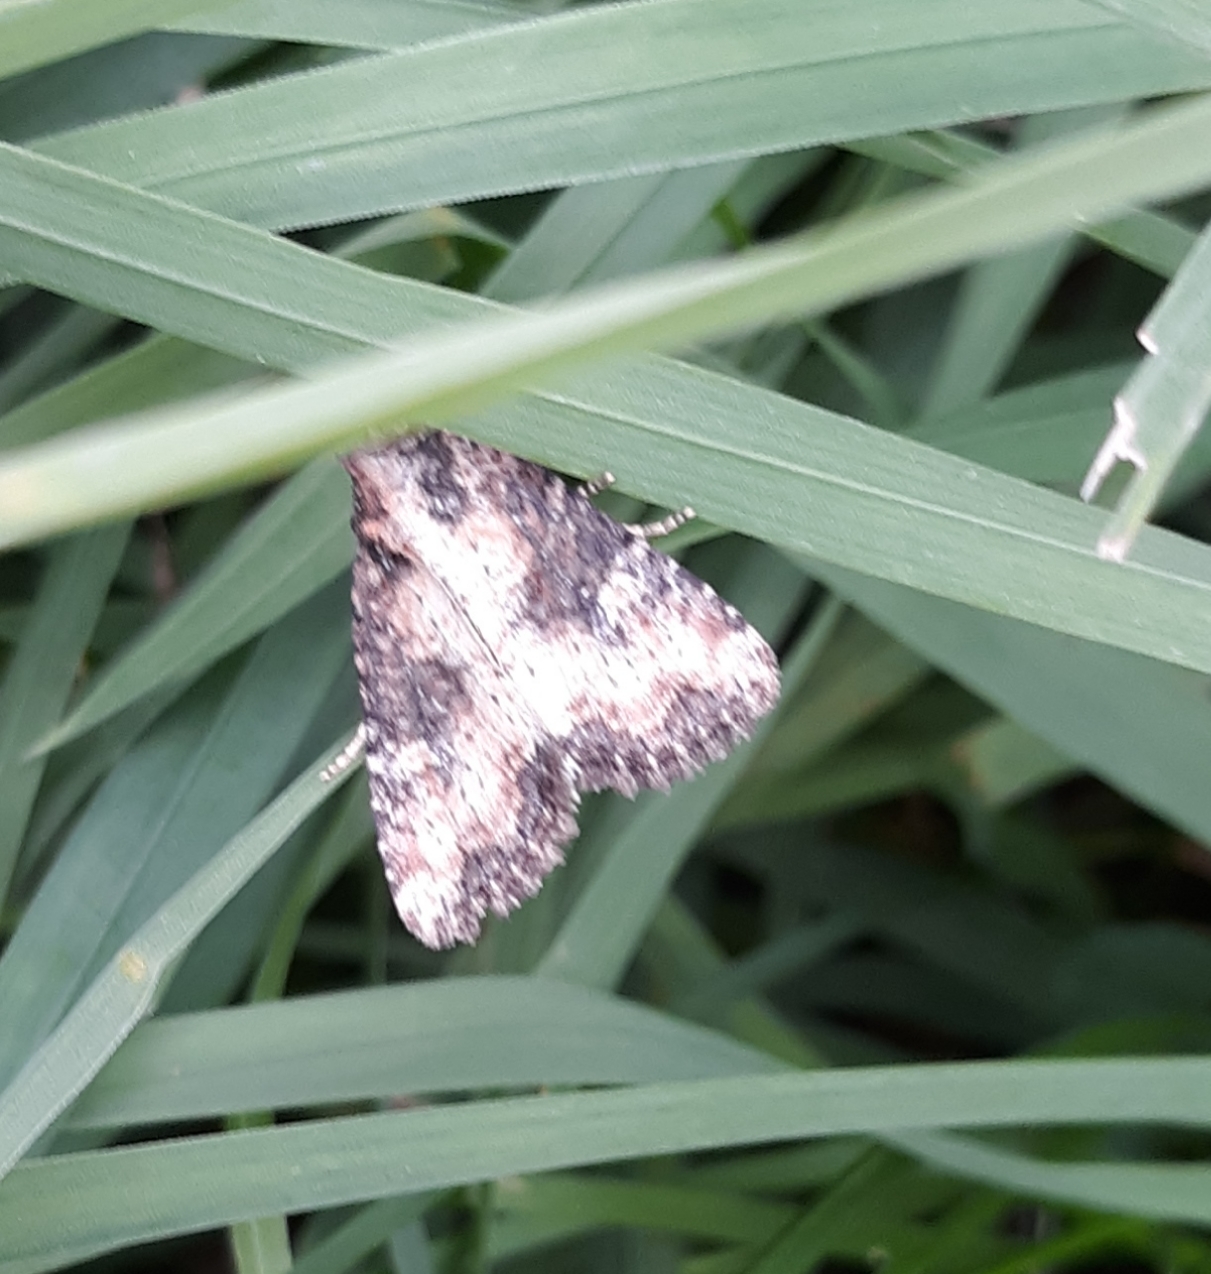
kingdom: Animalia
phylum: Arthropoda
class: Insecta
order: Lepidoptera
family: Noctuidae
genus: Mesapamea
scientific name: Mesapamea fractilinea
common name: Broken-lined brocade moth
